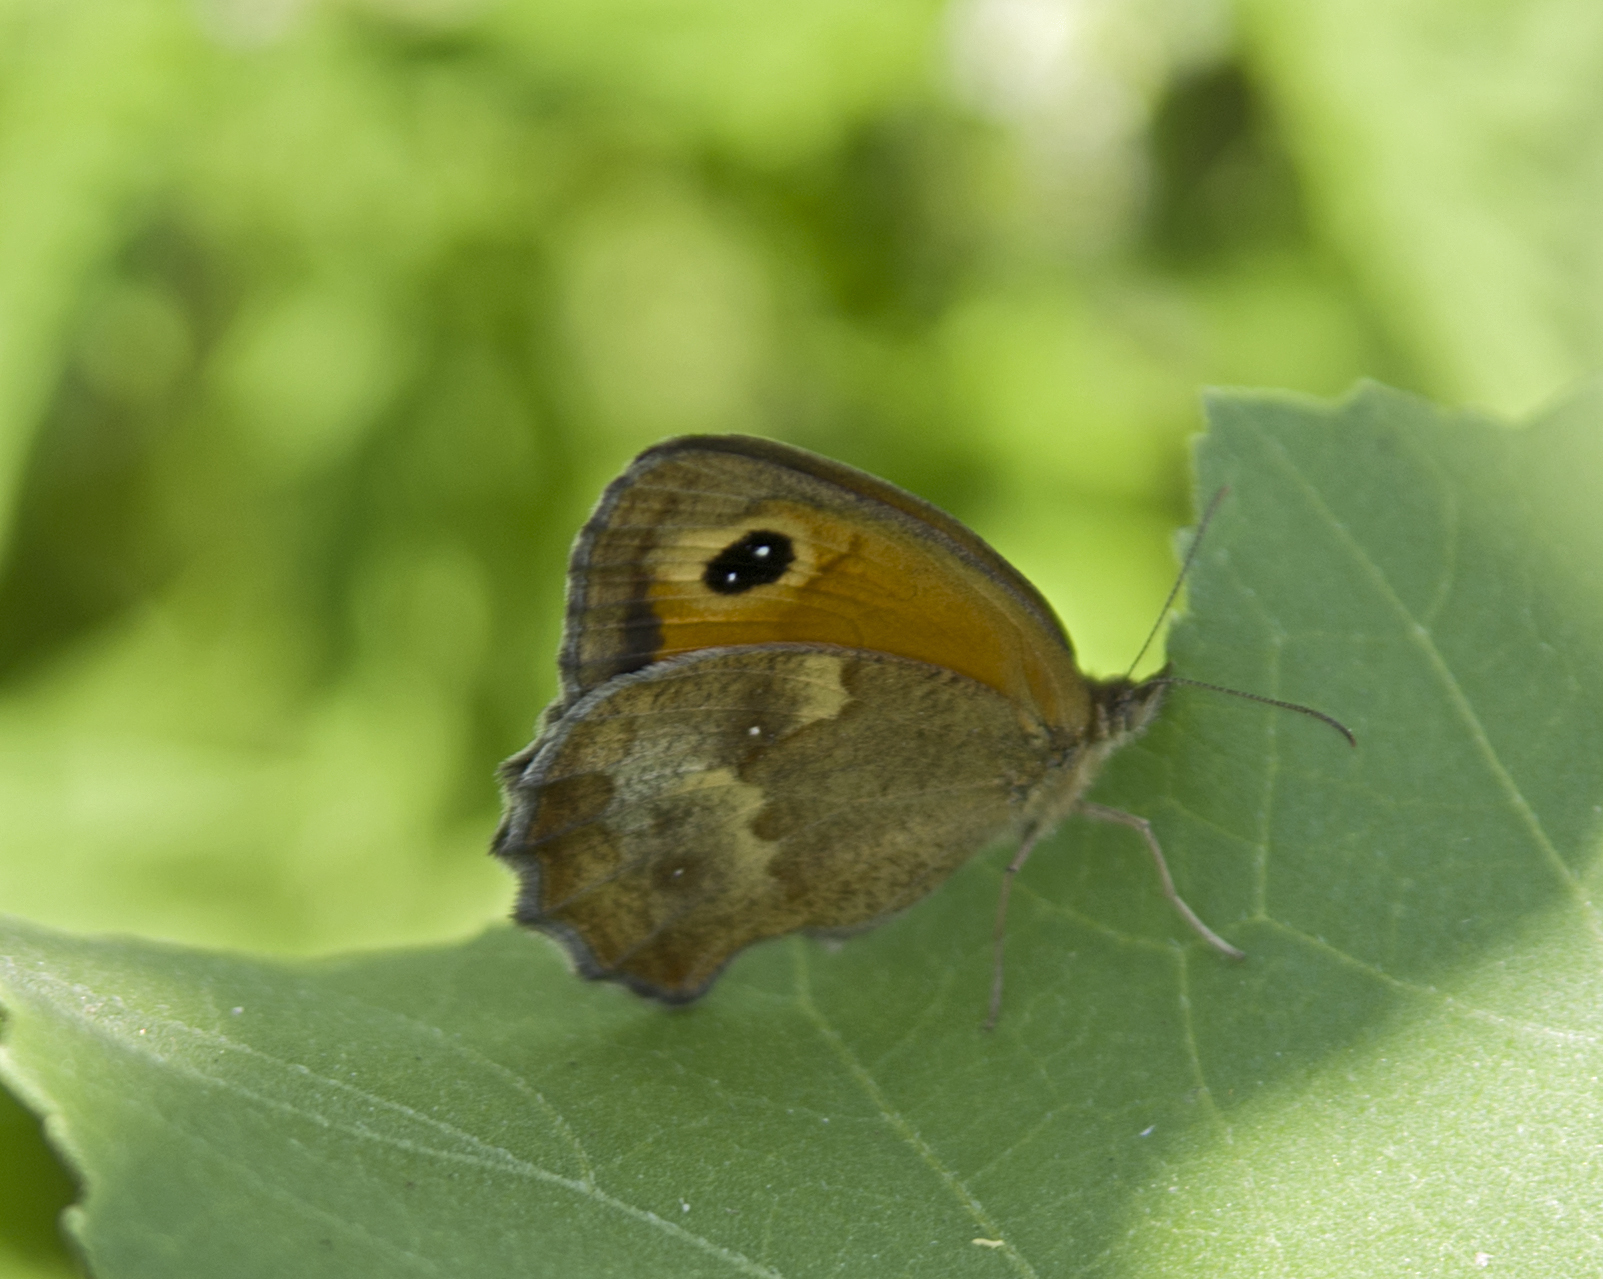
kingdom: Animalia
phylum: Arthropoda
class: Insecta
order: Lepidoptera
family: Nymphalidae
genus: Pyronia
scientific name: Pyronia tithonus
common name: Gatekeeper
